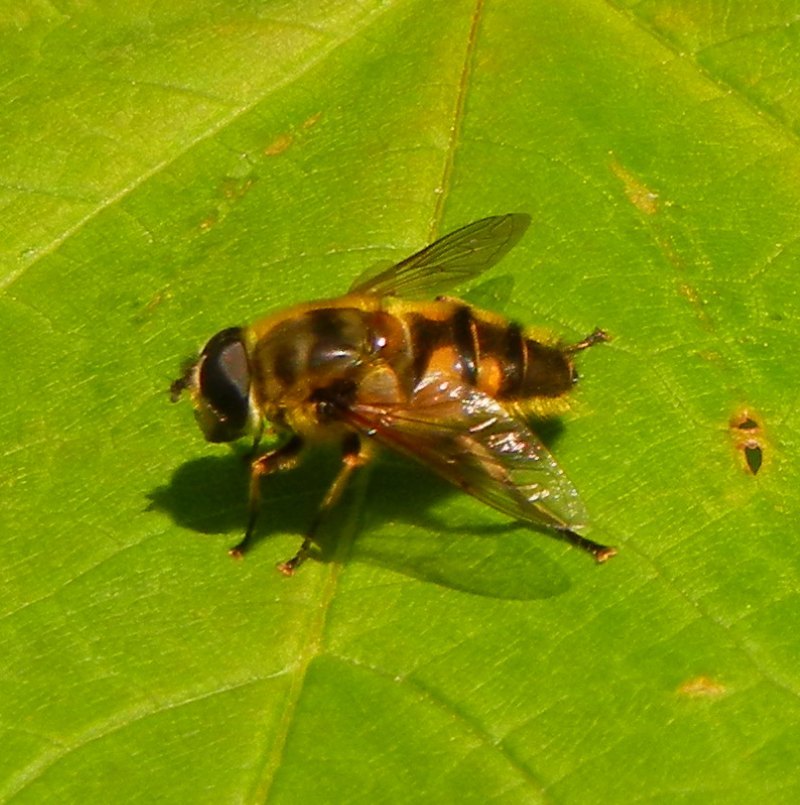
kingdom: Animalia
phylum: Arthropoda
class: Insecta
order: Diptera
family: Syrphidae
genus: Myathropa
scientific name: Myathropa florea
